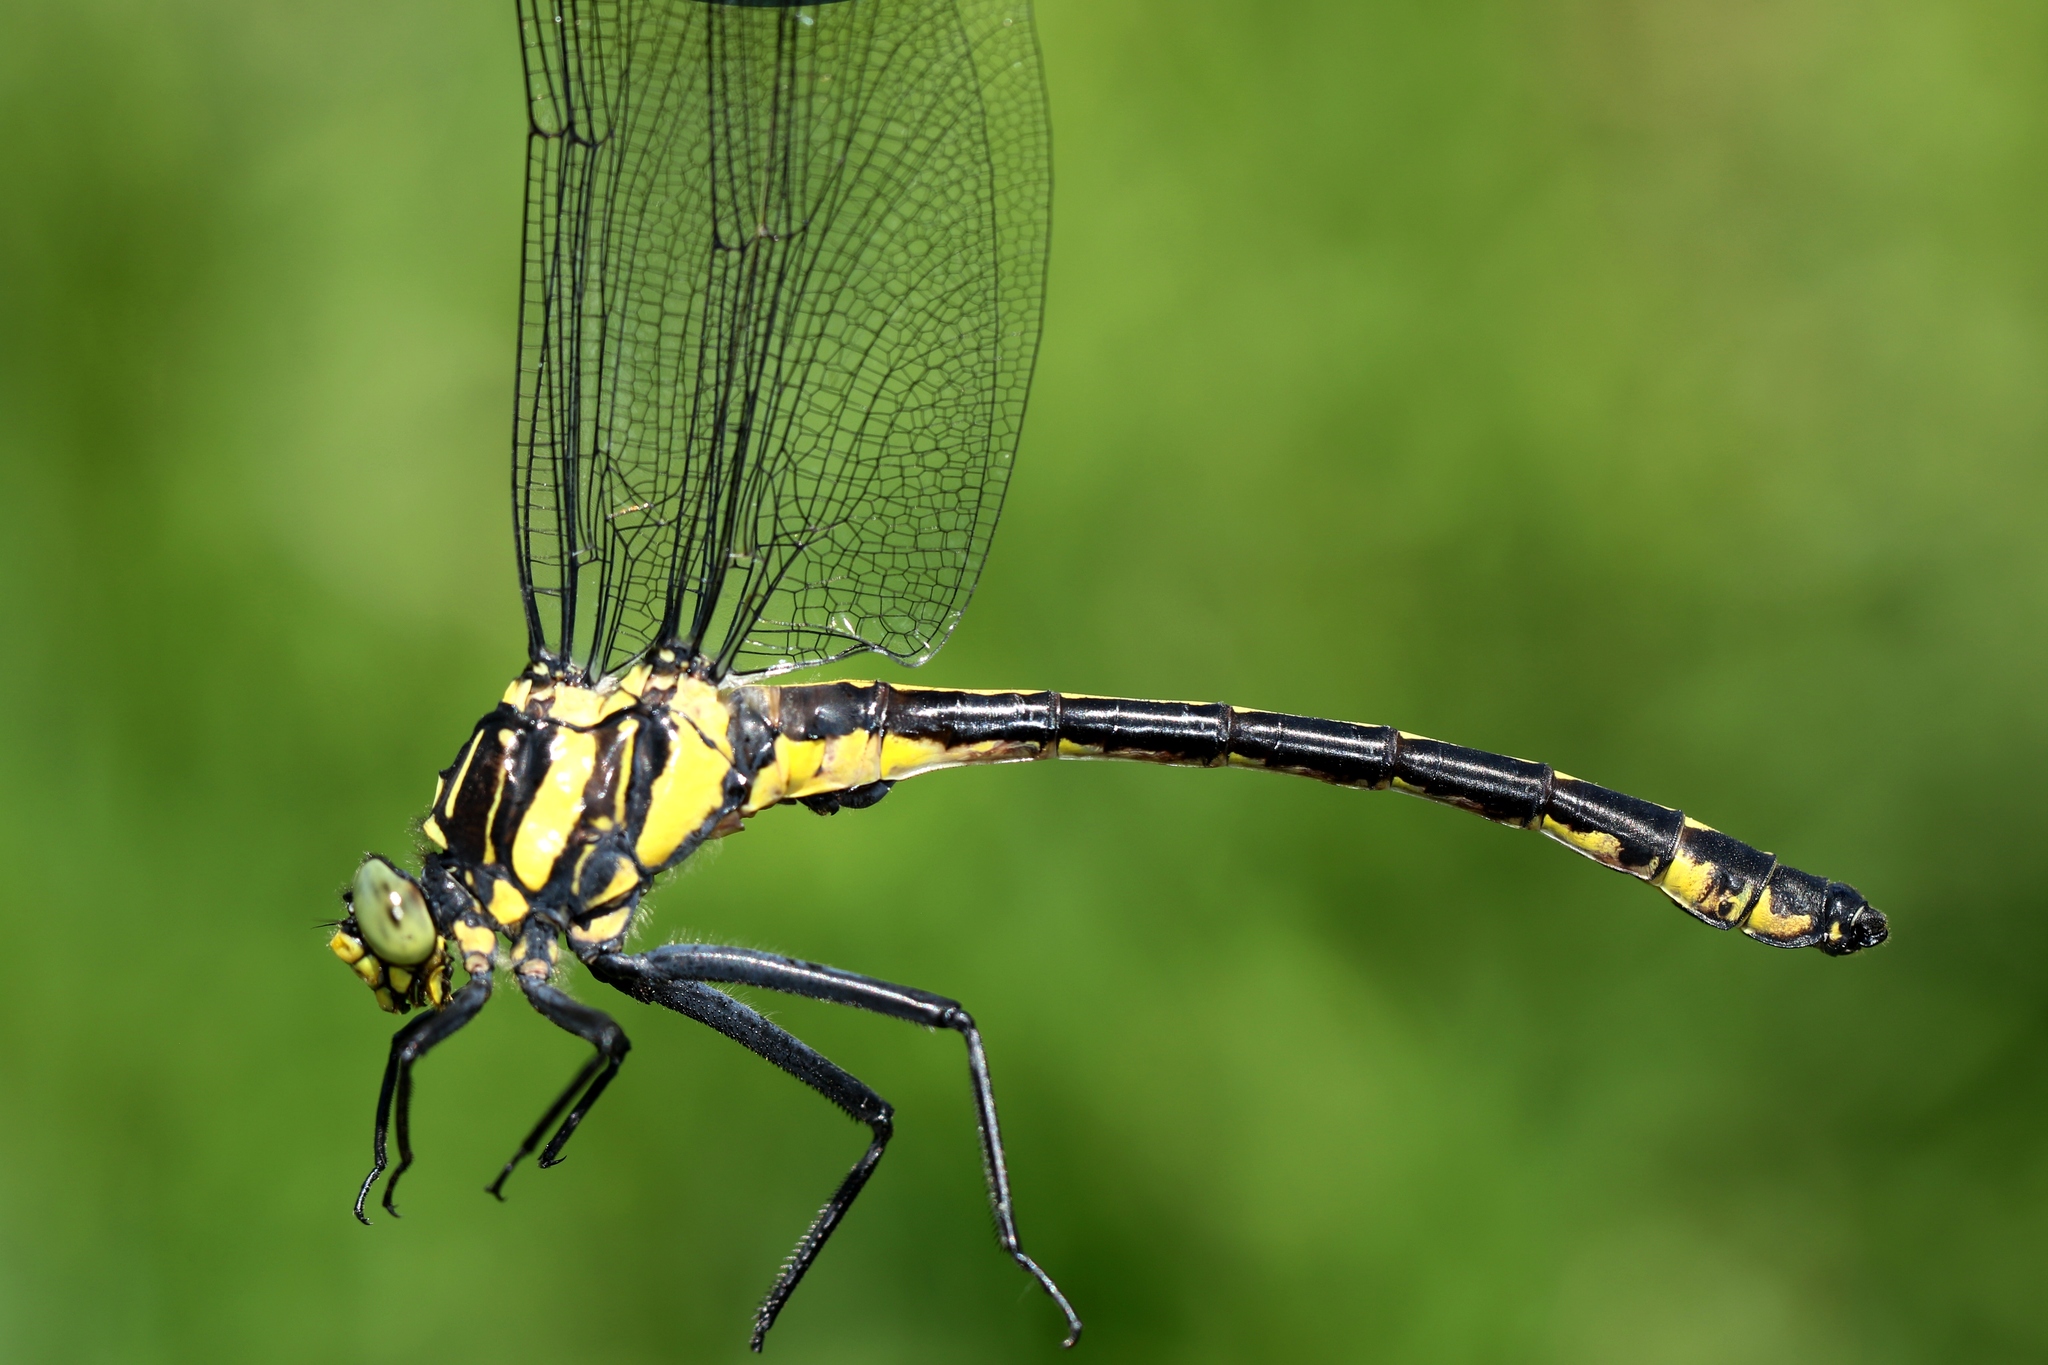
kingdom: Animalia
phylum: Arthropoda
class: Insecta
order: Odonata
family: Gomphidae
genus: Hagenius
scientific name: Hagenius brevistylus
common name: Dragonhunter
